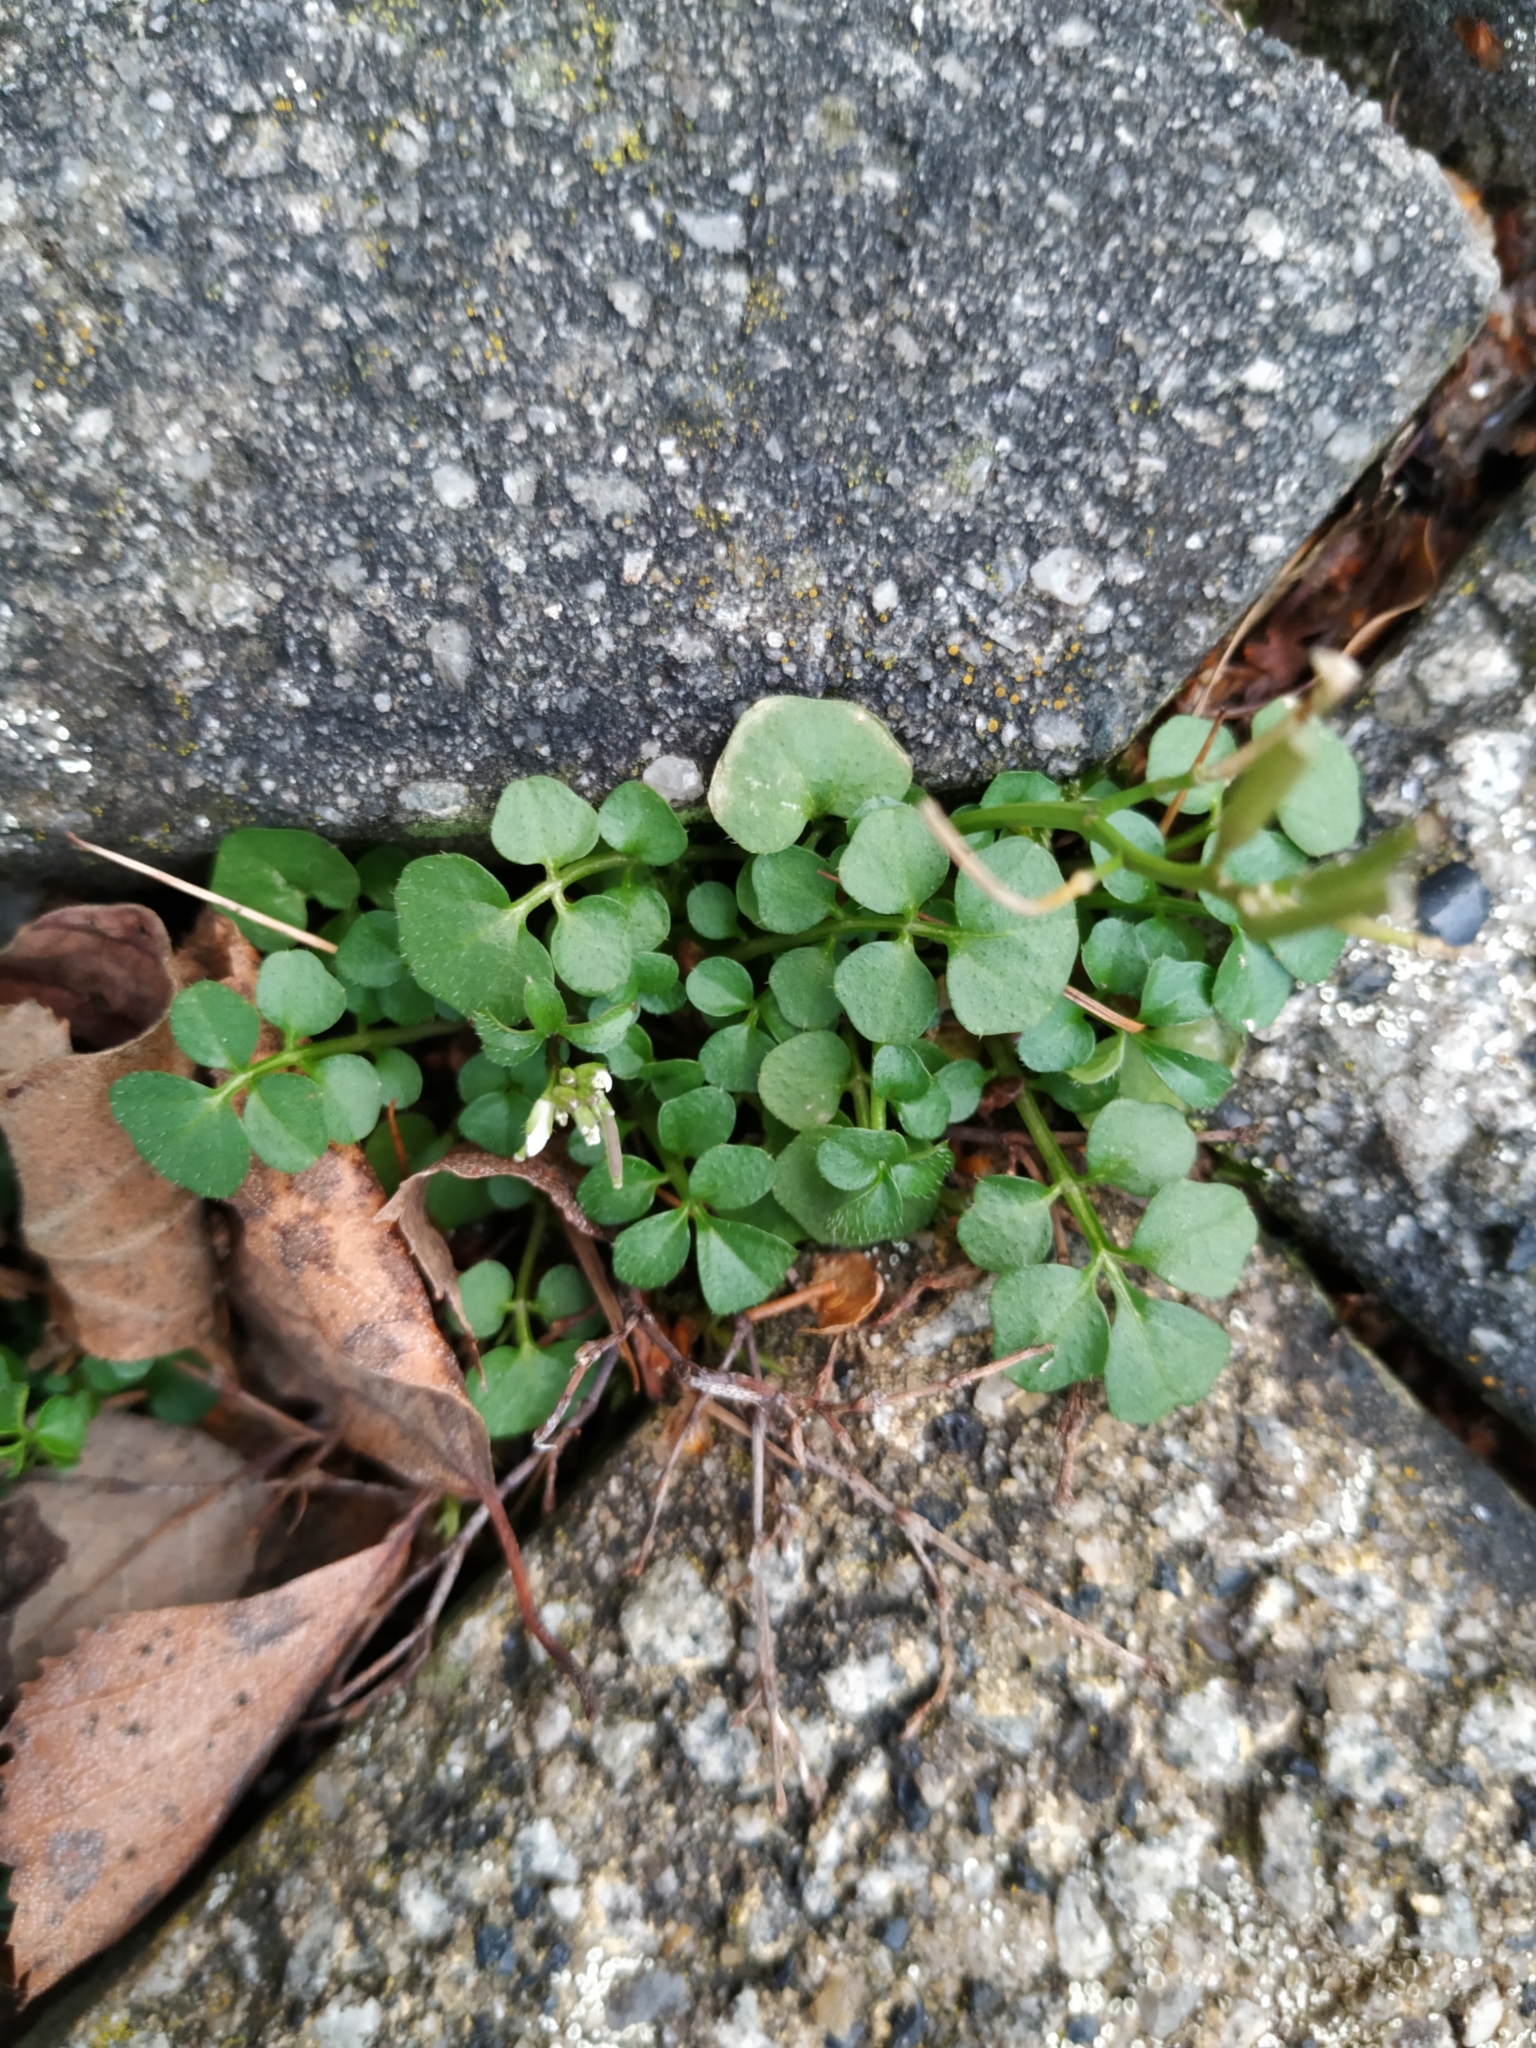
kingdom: Plantae
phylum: Tracheophyta
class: Magnoliopsida
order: Brassicales
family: Brassicaceae
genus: Cardamine
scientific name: Cardamine hirsuta
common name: Hairy bittercress
